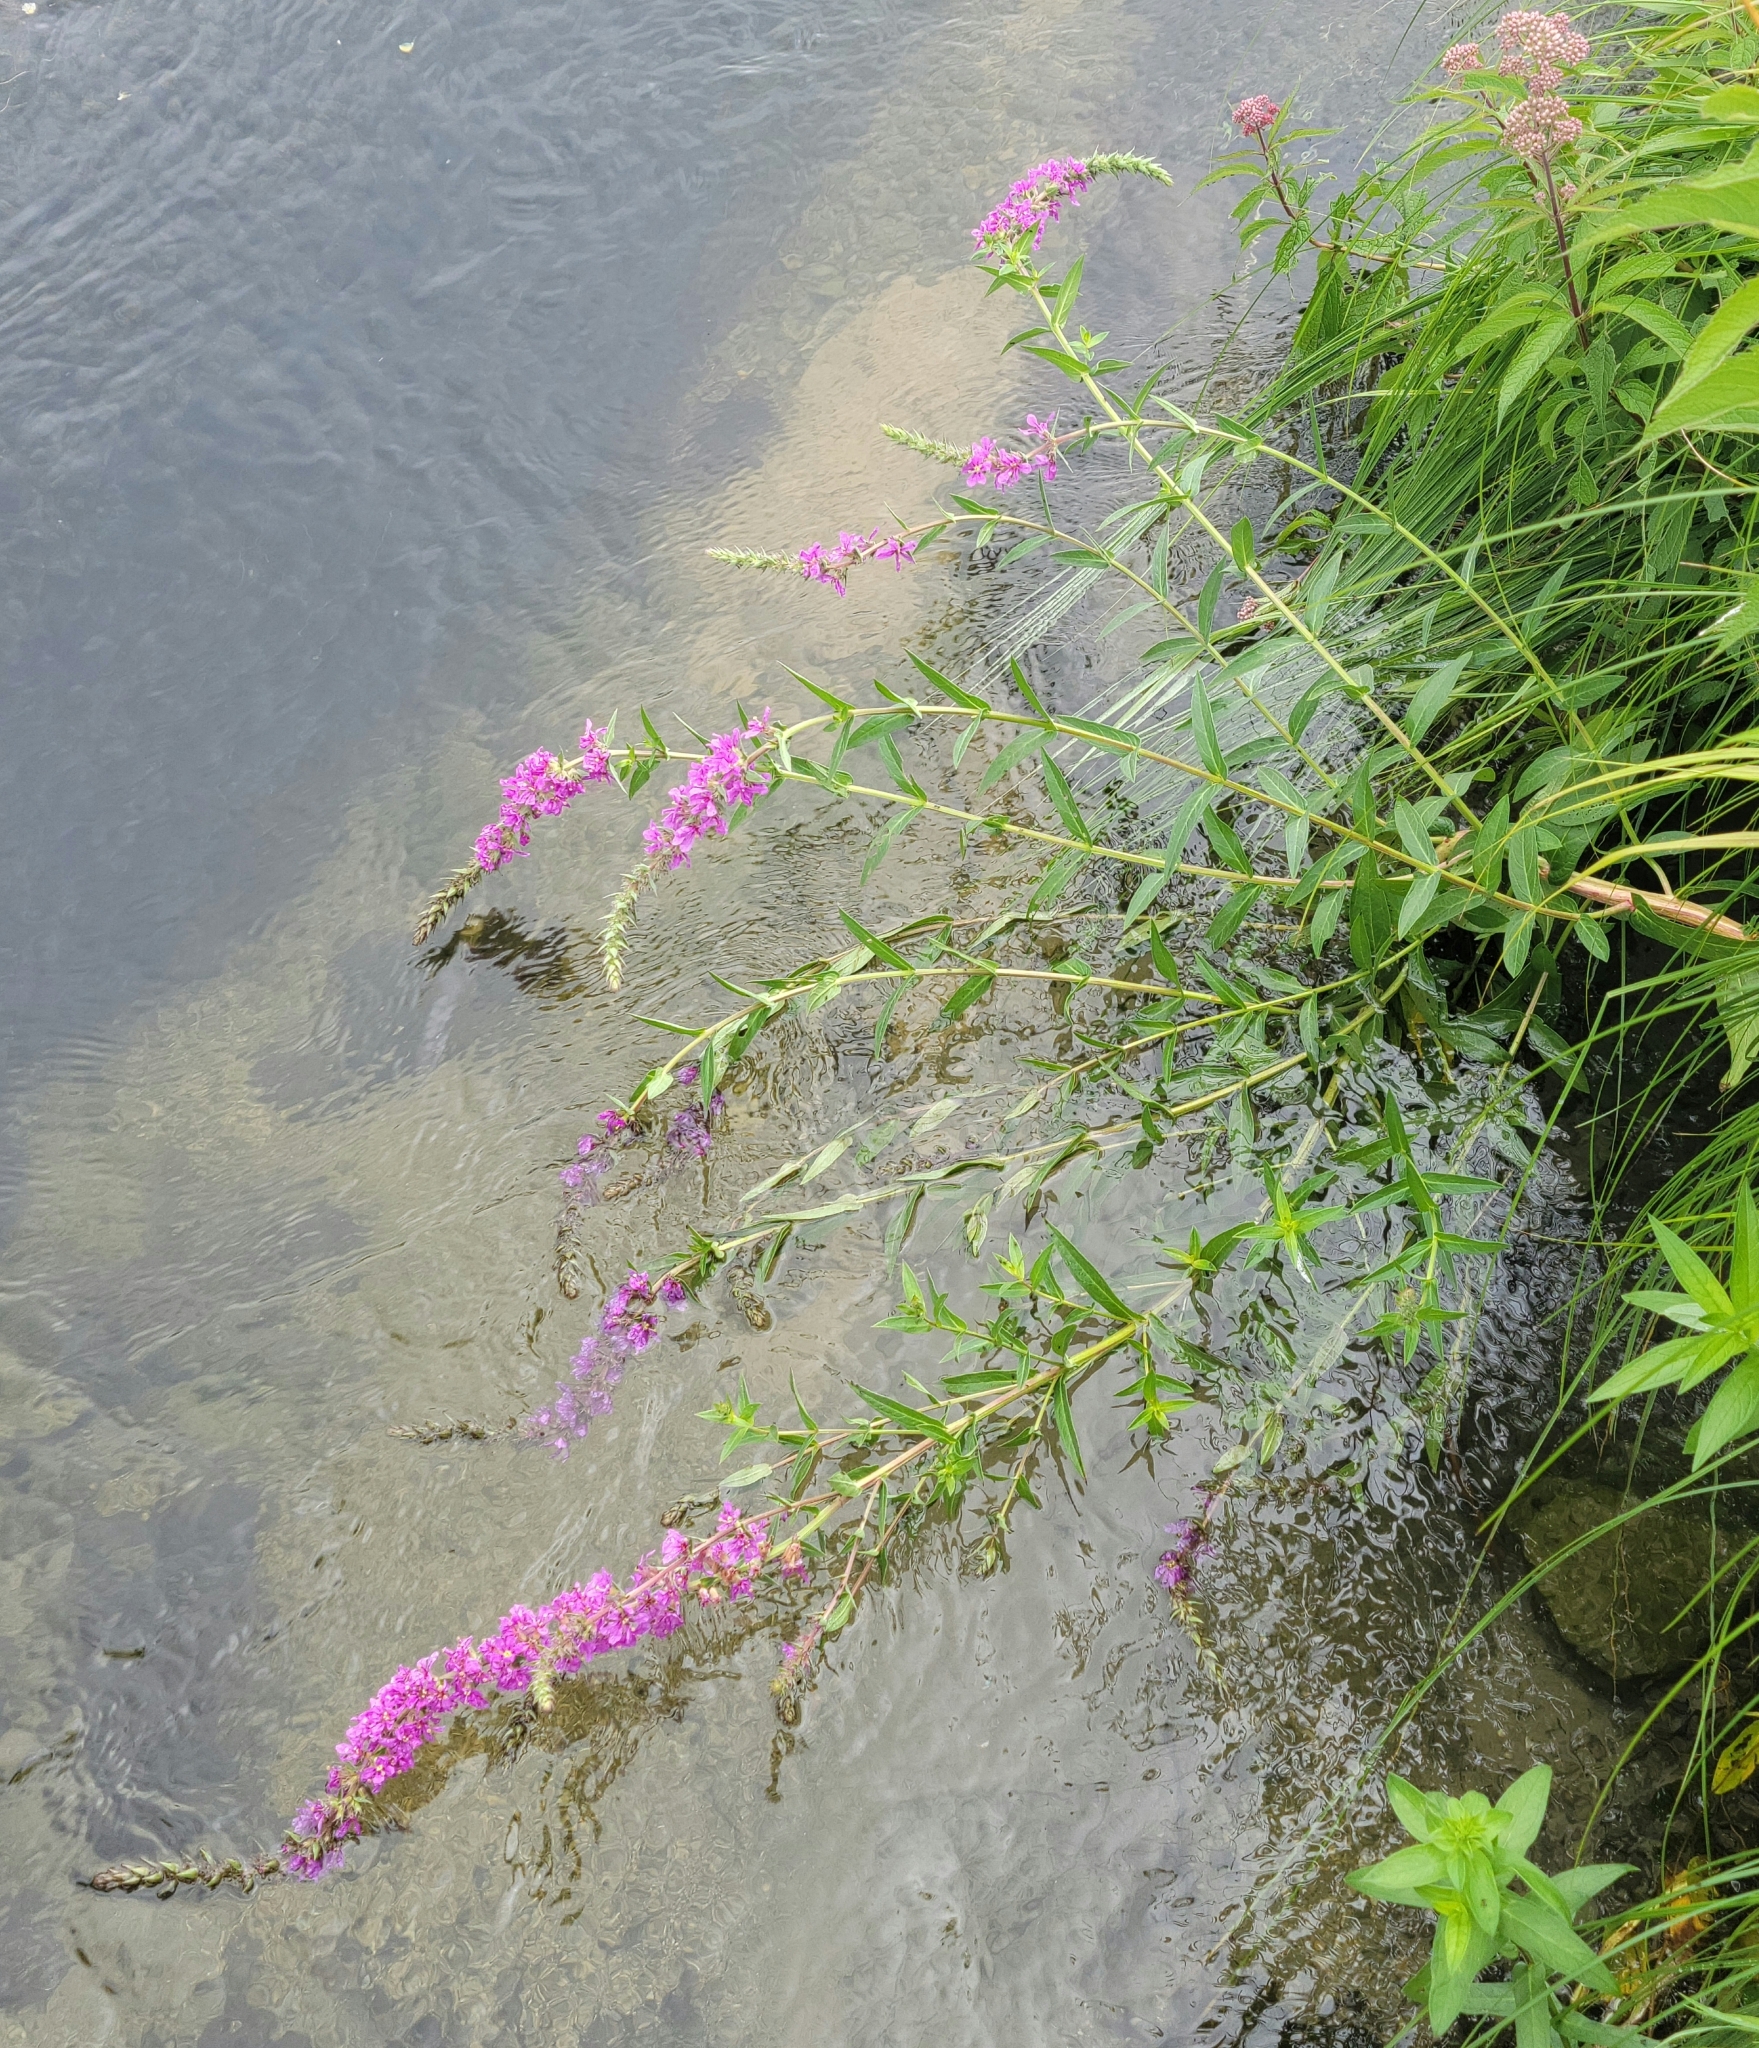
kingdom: Plantae
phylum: Tracheophyta
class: Magnoliopsida
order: Myrtales
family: Lythraceae
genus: Lythrum
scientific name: Lythrum salicaria
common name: Purple loosestrife
